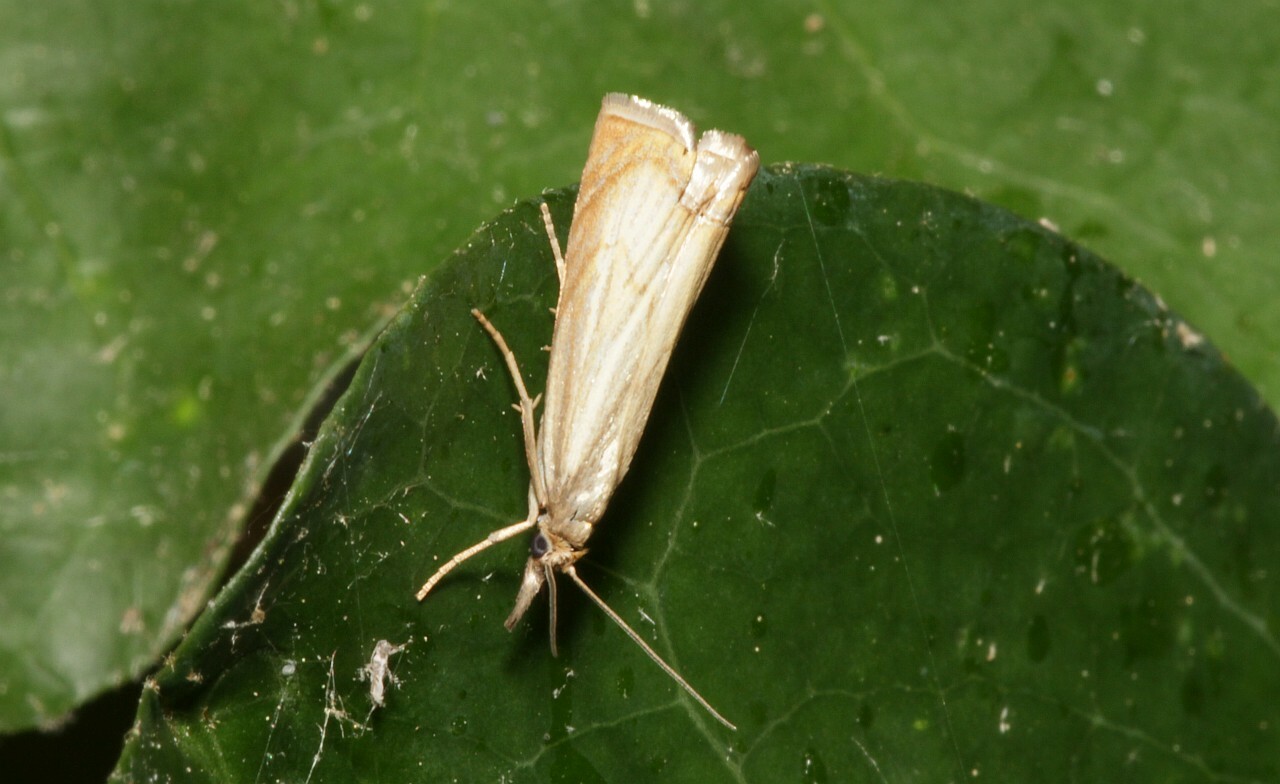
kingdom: Animalia
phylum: Arthropoda
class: Insecta
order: Lepidoptera
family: Crambidae
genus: Chrysoteuchia
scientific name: Chrysoteuchia culmella
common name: Garden grass-veneer
